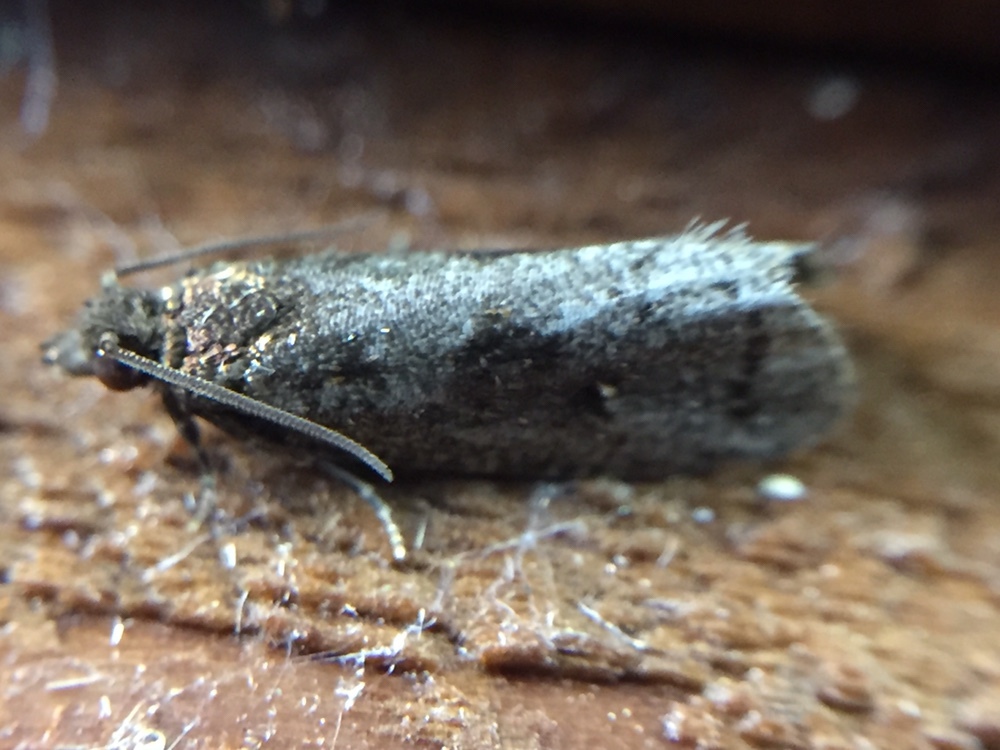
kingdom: Animalia
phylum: Arthropoda
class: Insecta
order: Lepidoptera
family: Tortricidae
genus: Cryptaspasma
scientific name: Cryptaspasma querula
